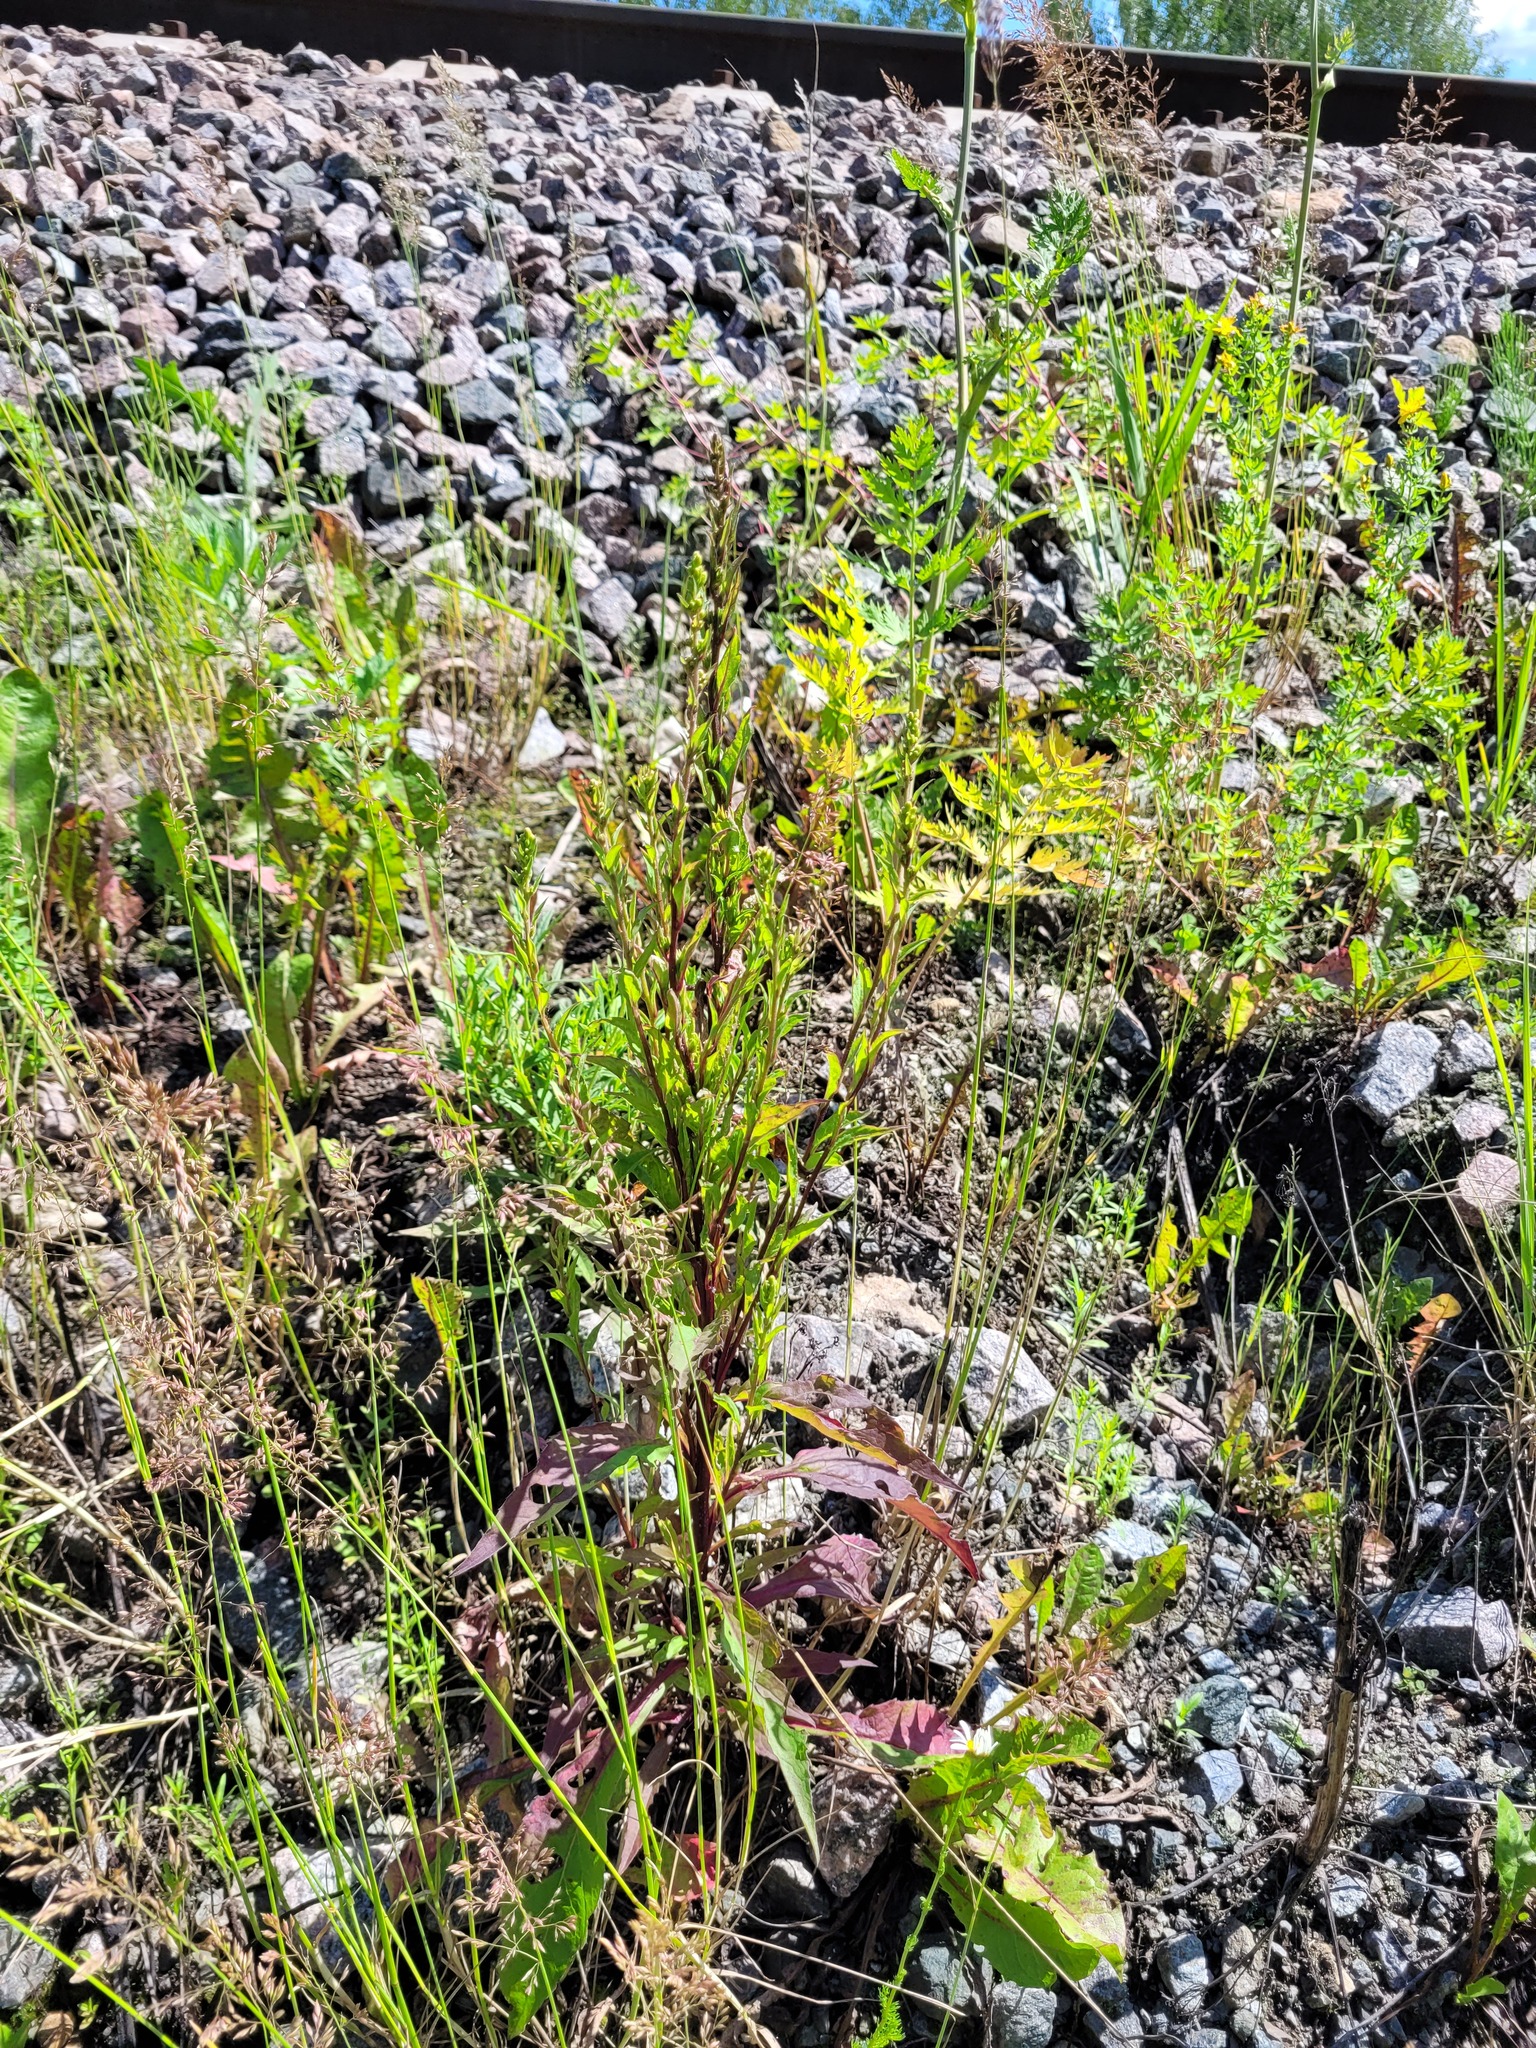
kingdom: Plantae
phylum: Tracheophyta
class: Magnoliopsida
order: Asterales
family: Asteraceae
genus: Solidago
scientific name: Solidago virgaurea
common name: Goldenrod
